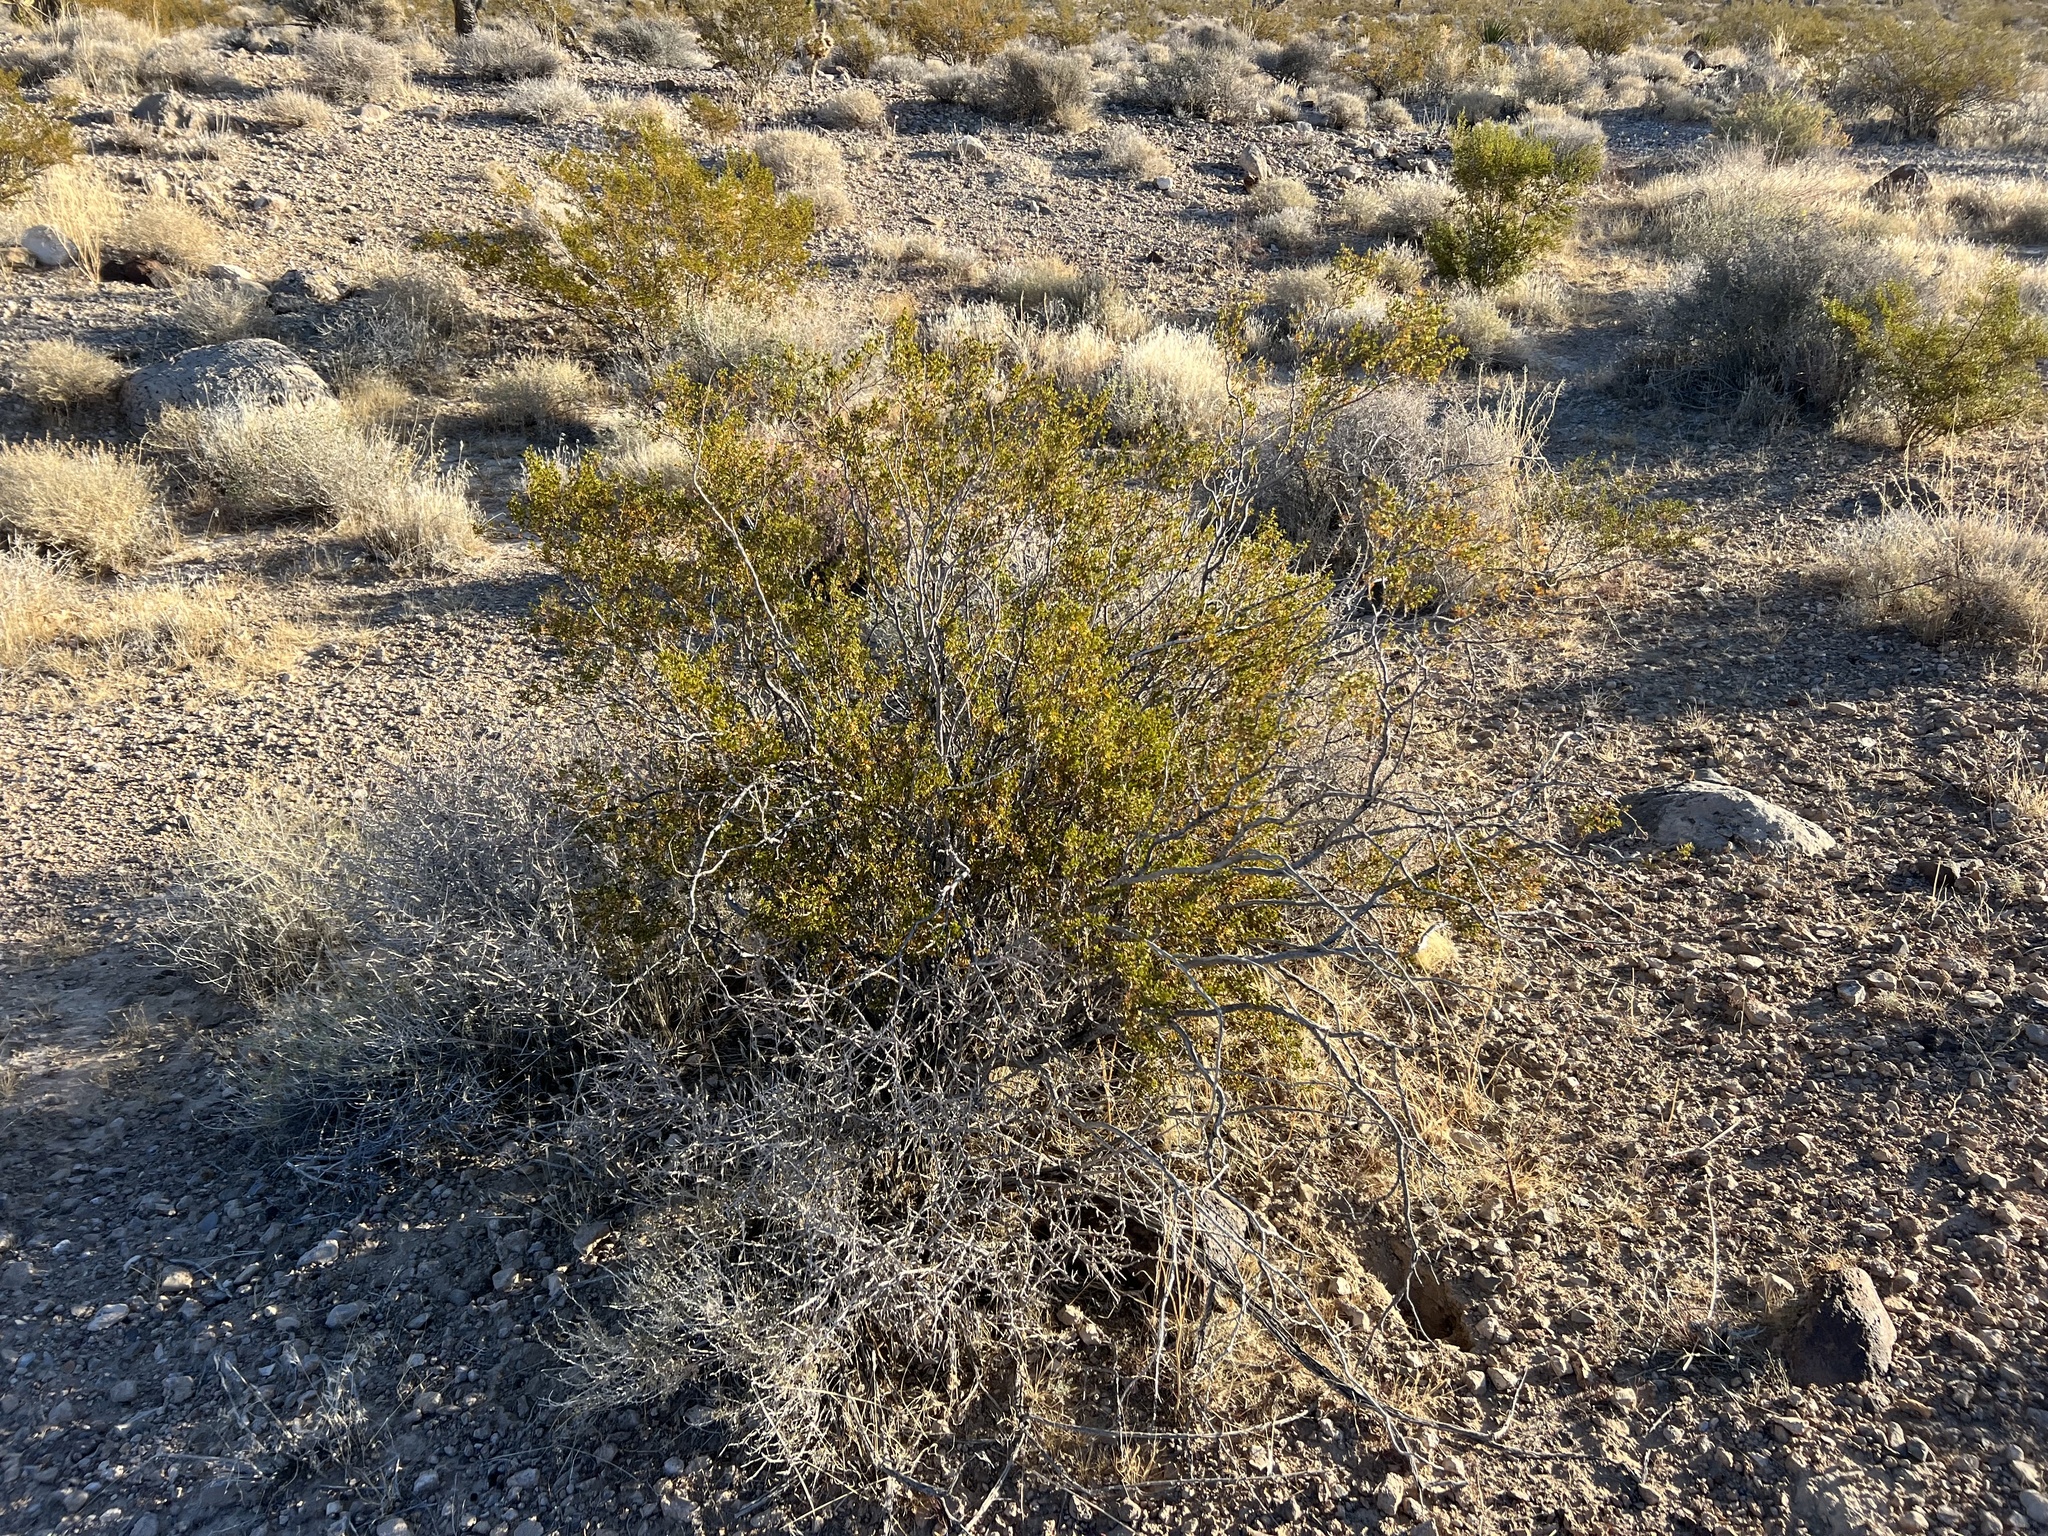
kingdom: Plantae
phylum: Tracheophyta
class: Magnoliopsida
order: Zygophyllales
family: Zygophyllaceae
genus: Larrea
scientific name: Larrea tridentata
